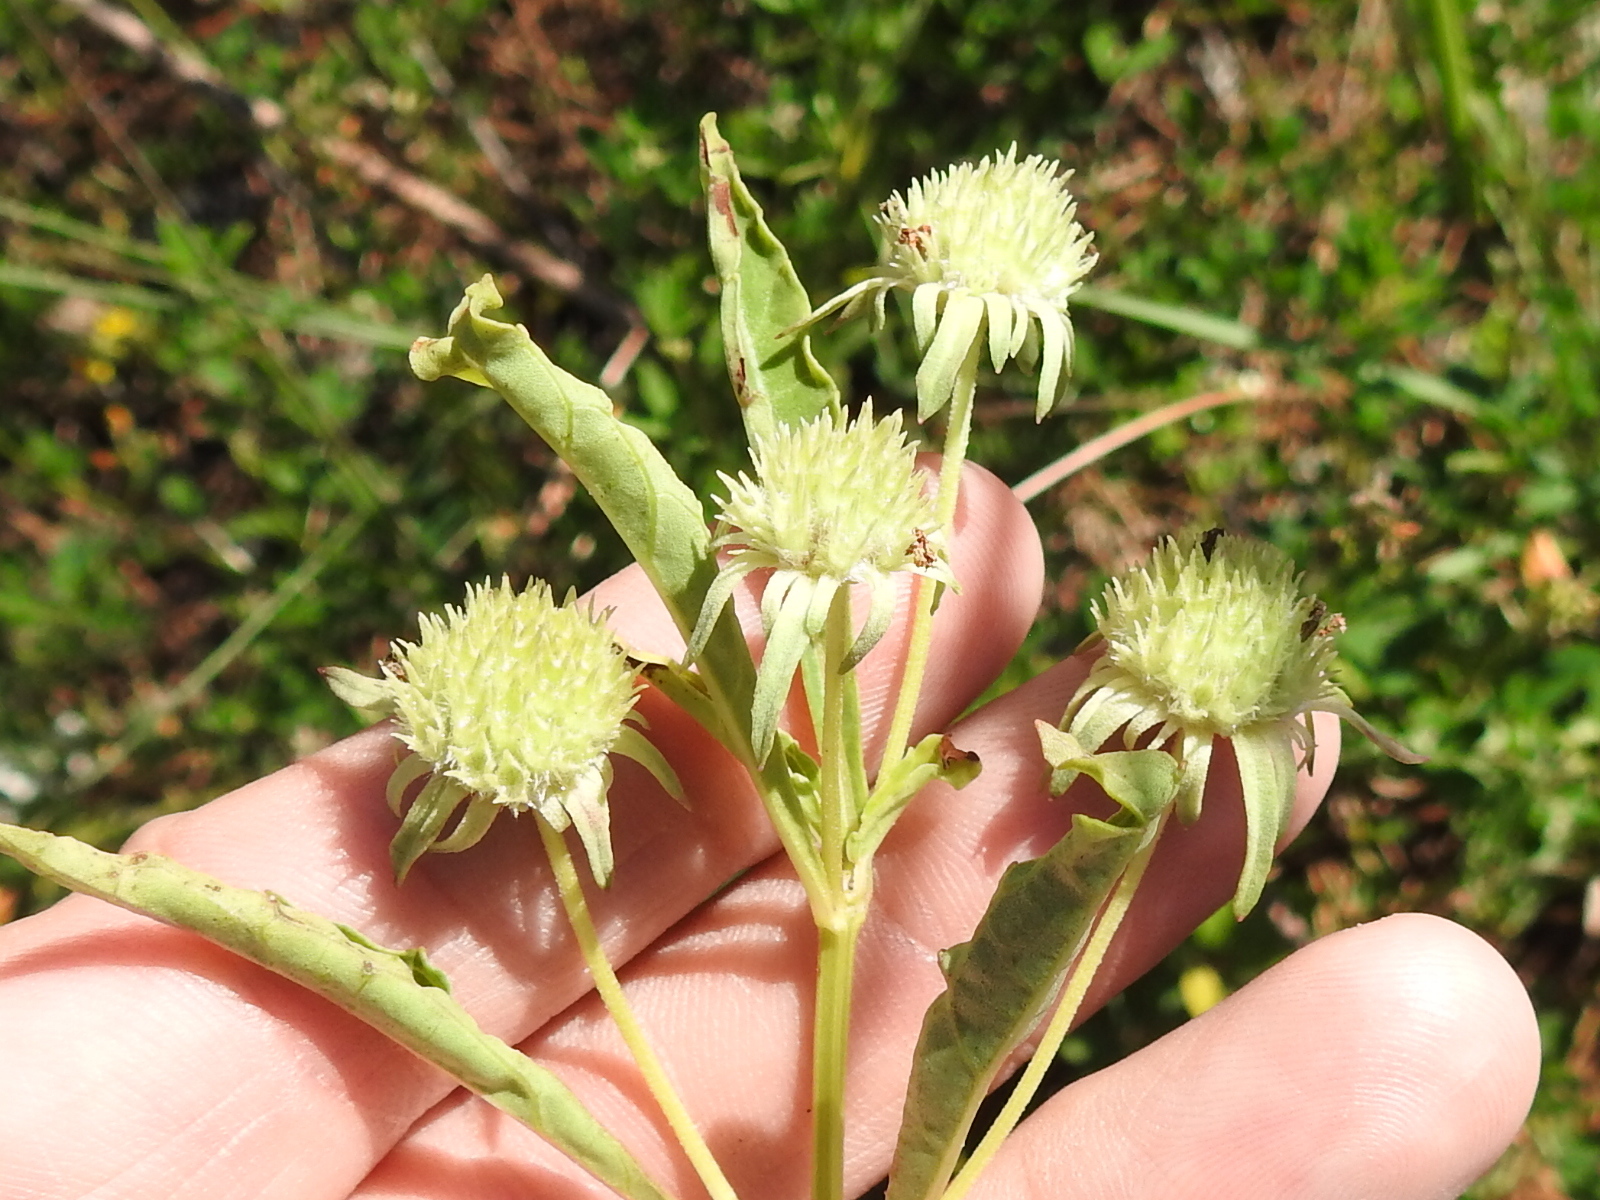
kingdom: Plantae
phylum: Tracheophyta
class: Magnoliopsida
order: Lamiales
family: Lamiaceae
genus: Hyptis
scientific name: Hyptis alata
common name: Cluster bush-mint
